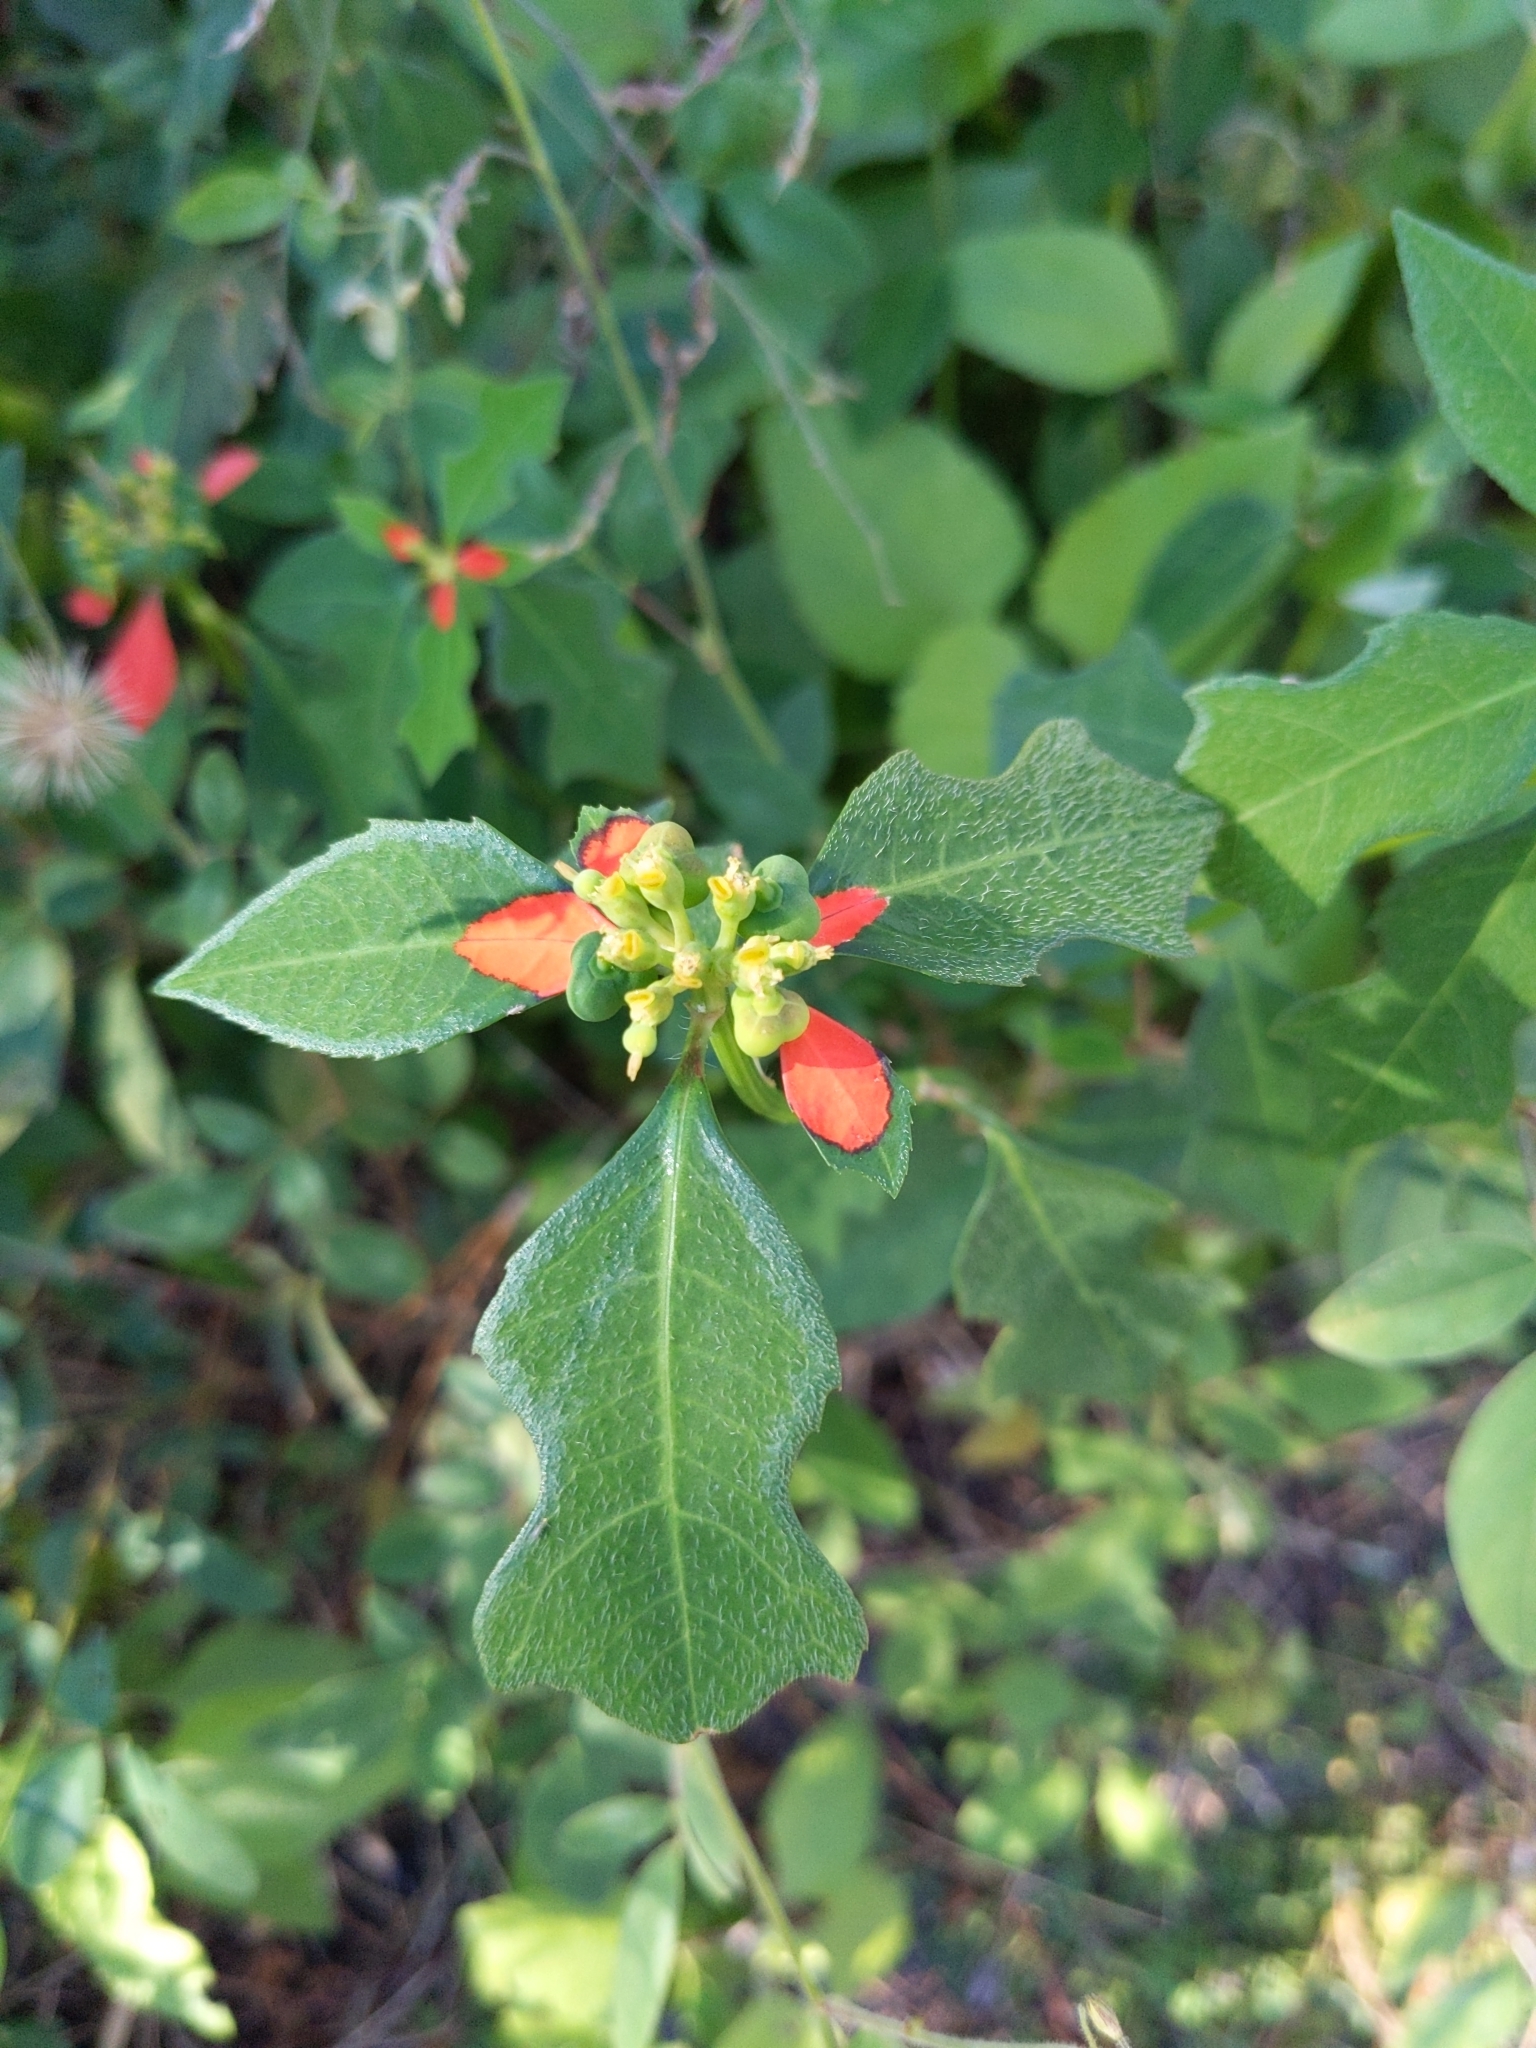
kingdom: Plantae
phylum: Tracheophyta
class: Magnoliopsida
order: Malpighiales
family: Euphorbiaceae
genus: Euphorbia
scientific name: Euphorbia heterophylla
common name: Mexican fireplant
